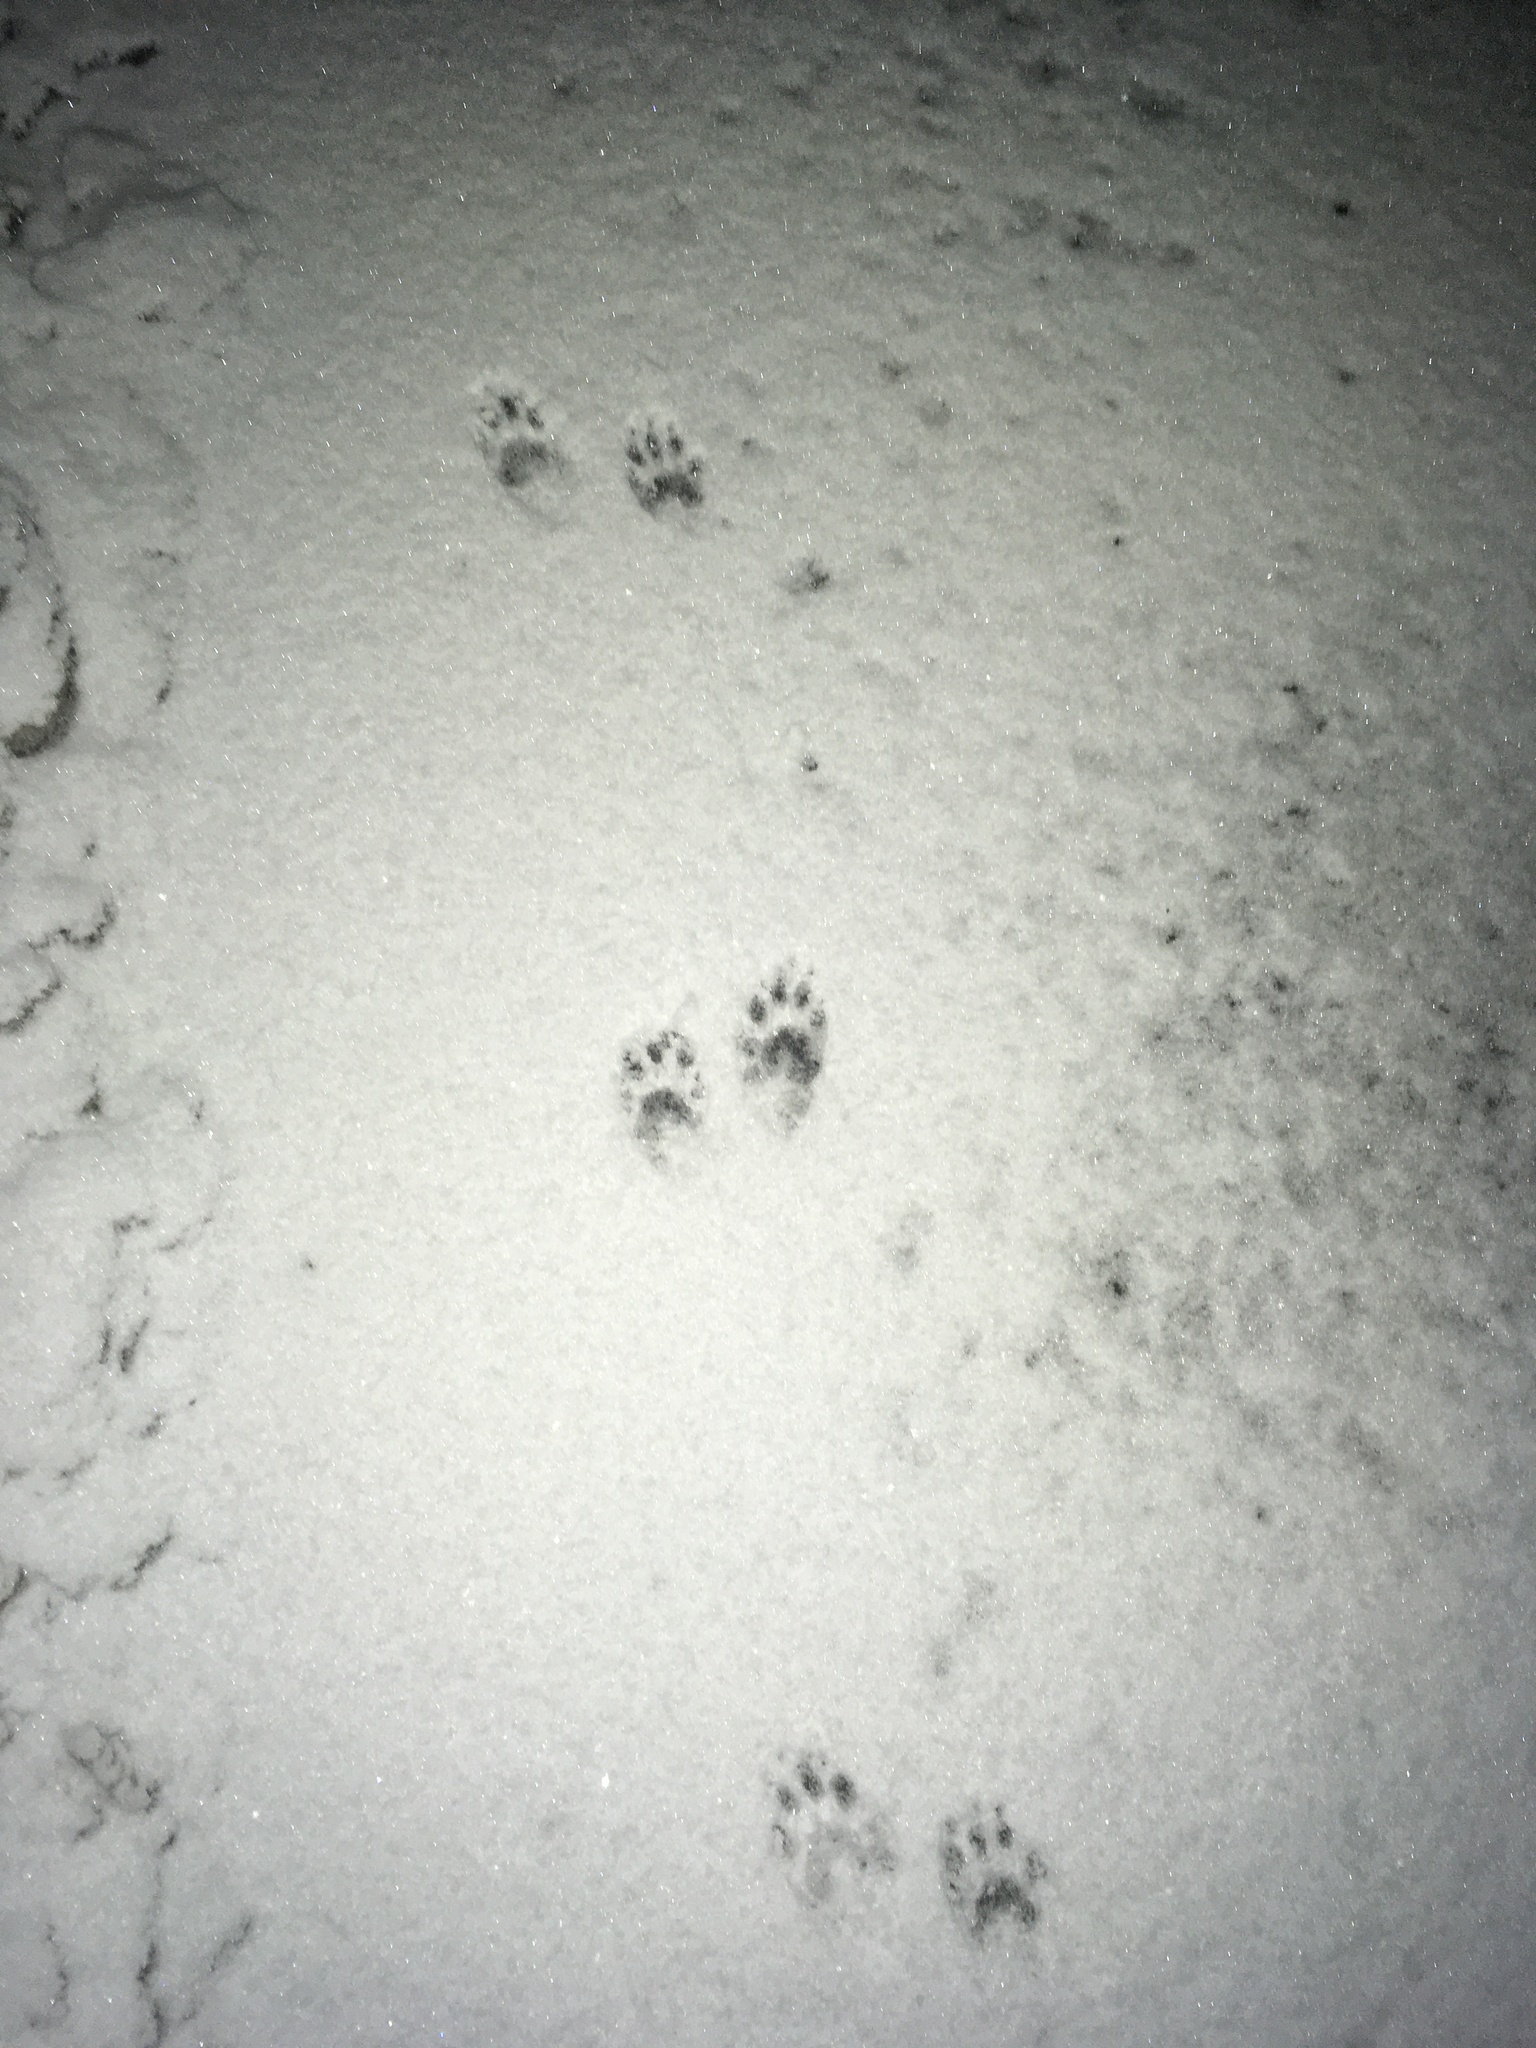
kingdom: Animalia
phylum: Chordata
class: Mammalia
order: Carnivora
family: Procyonidae
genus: Procyon
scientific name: Procyon lotor
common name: Raccoon
